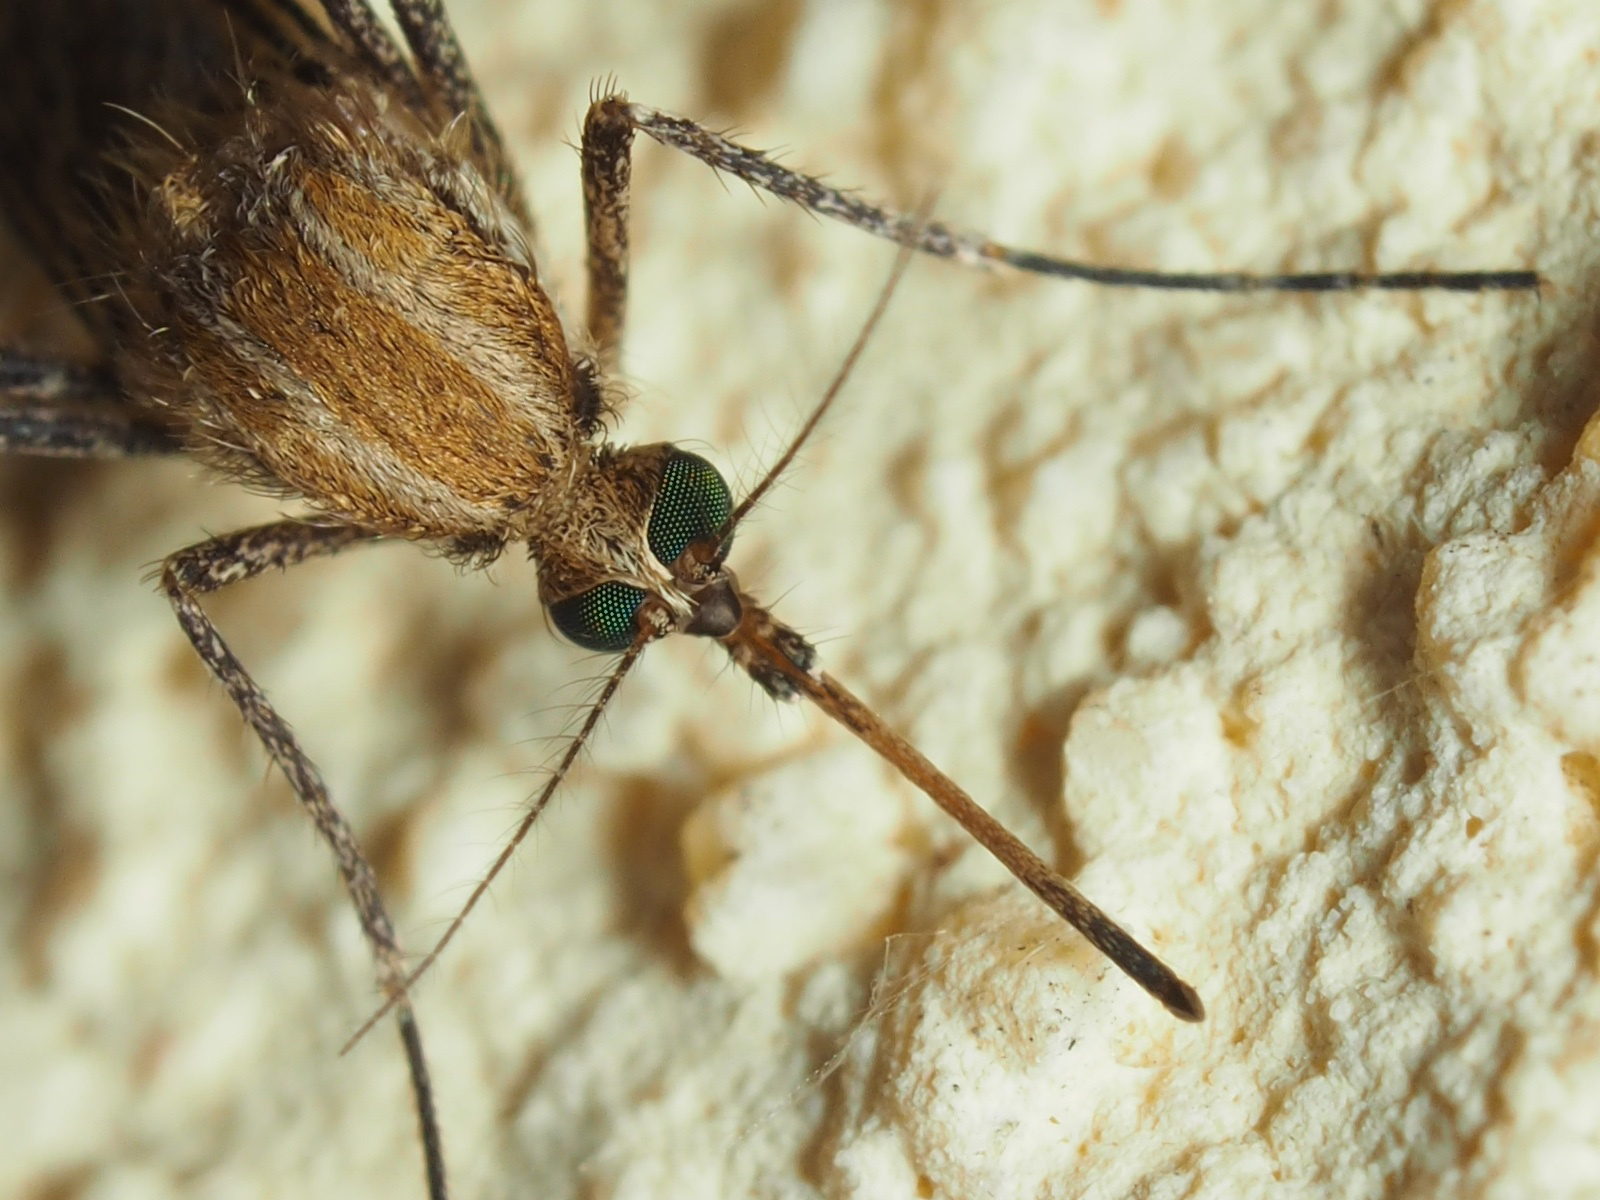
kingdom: Animalia
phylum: Arthropoda
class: Insecta
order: Diptera
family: Culicidae
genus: Aedes
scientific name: Aedes caspius
